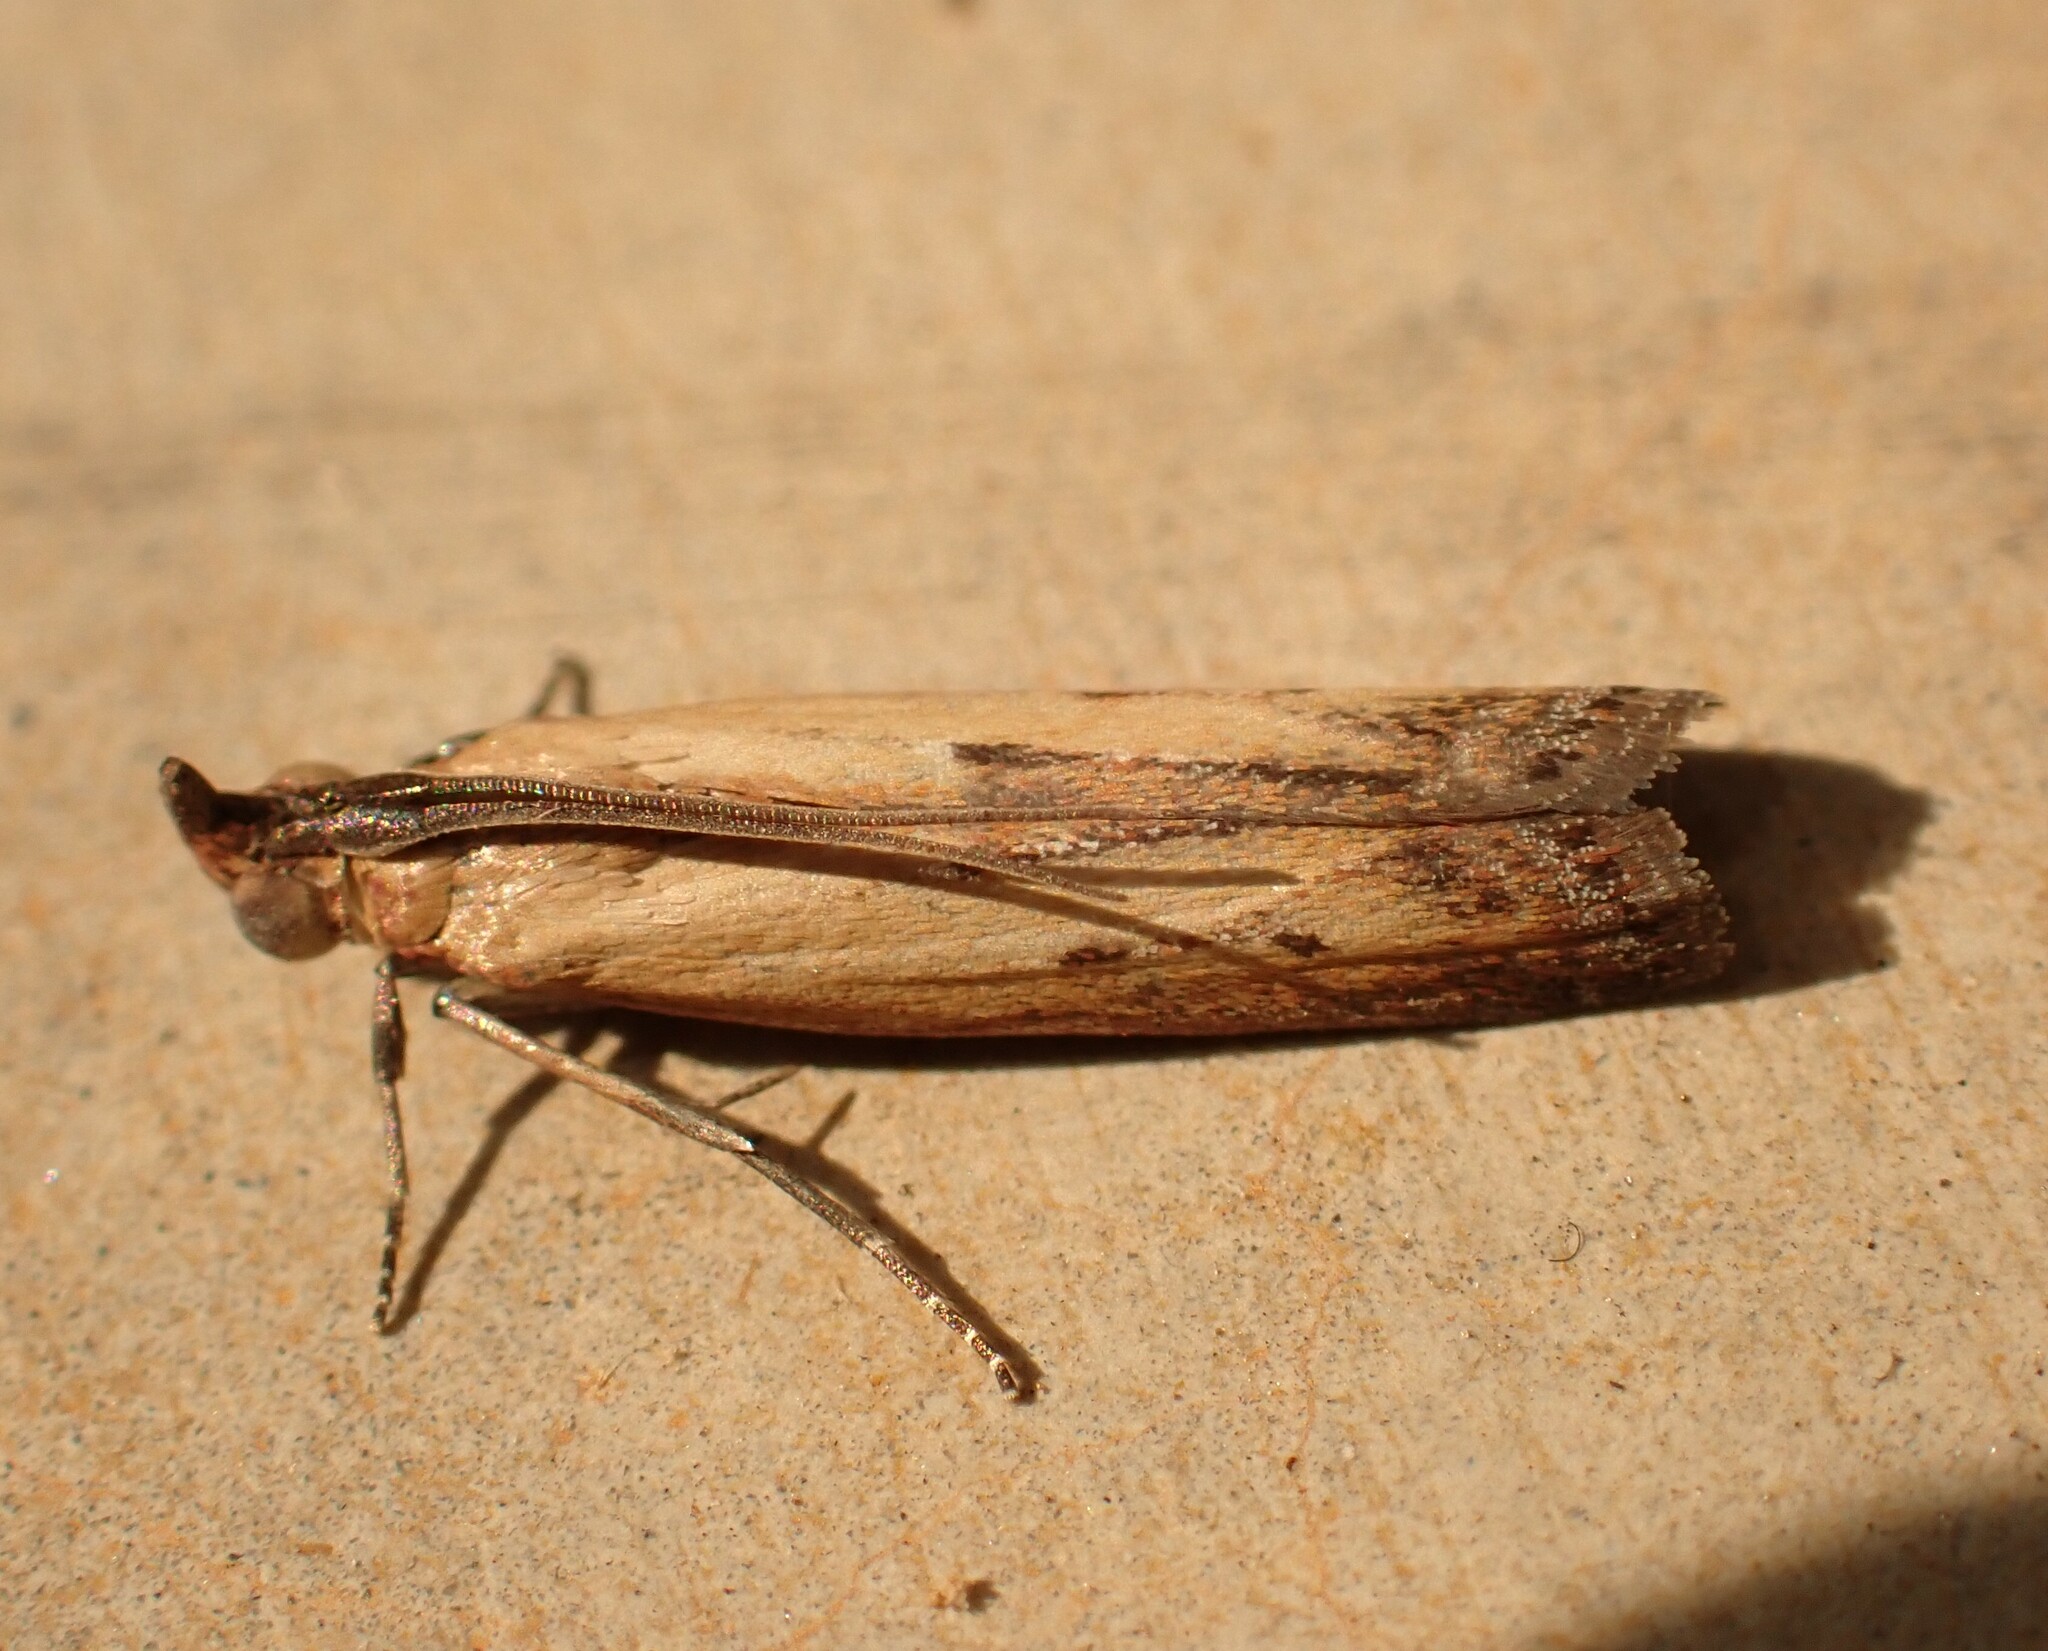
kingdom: Animalia
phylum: Arthropoda
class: Insecta
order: Lepidoptera
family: Pyralidae
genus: Elasmopalpus
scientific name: Elasmopalpus lignosella
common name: Lesser cornstalk borer
